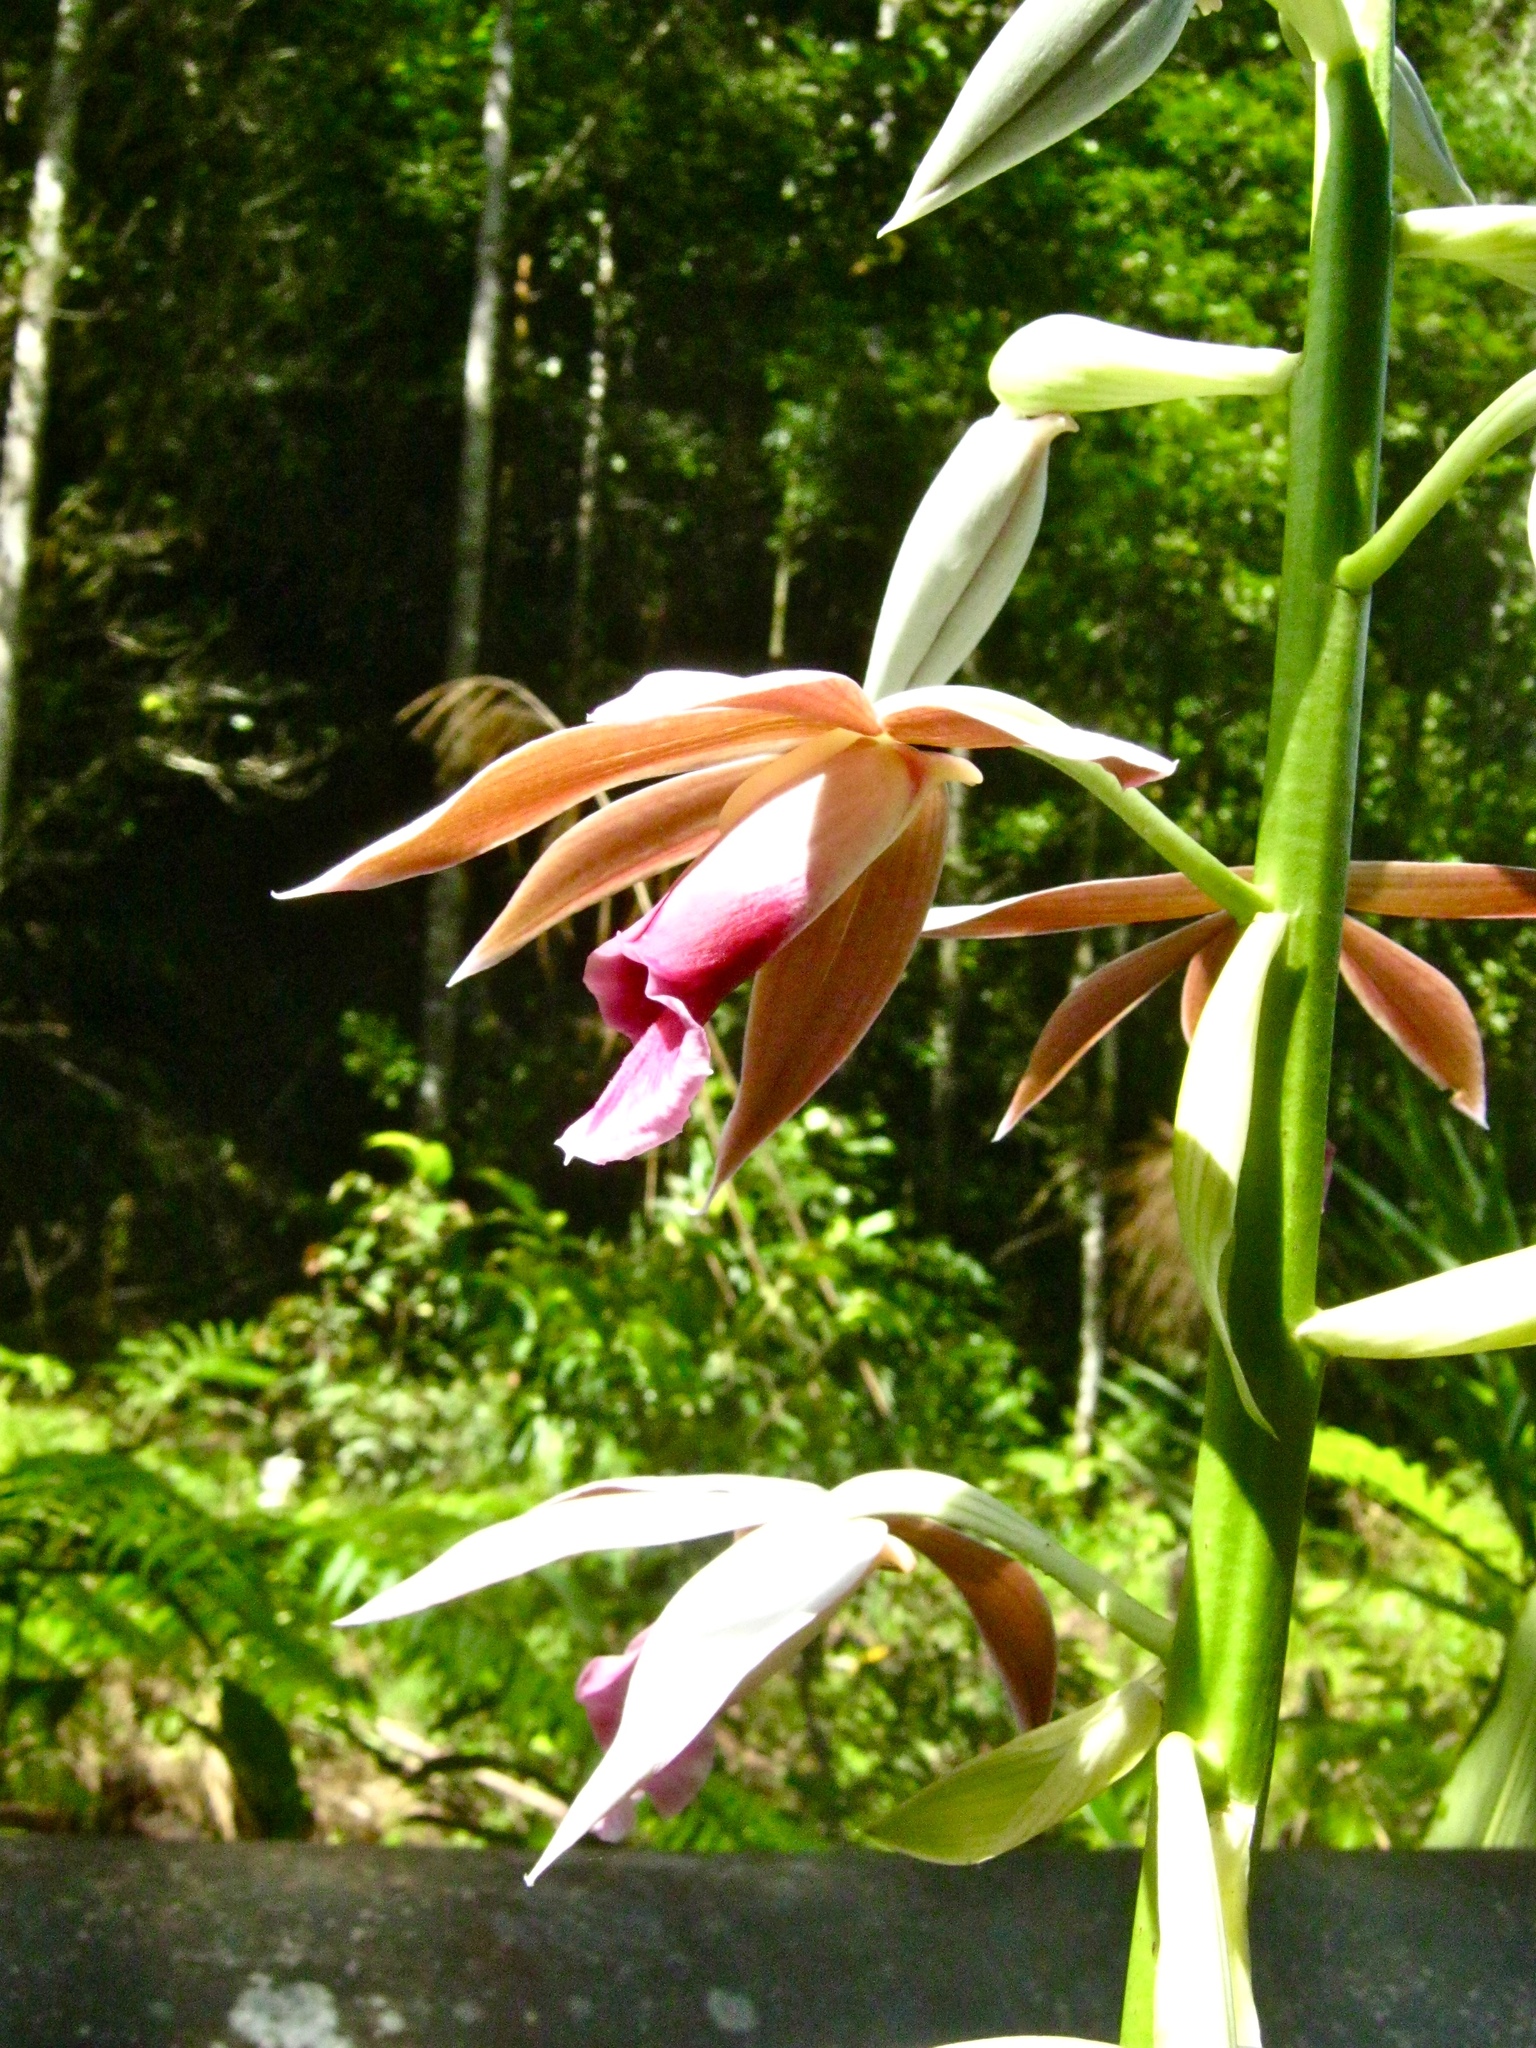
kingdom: Plantae
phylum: Tracheophyta
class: Liliopsida
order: Asparagales
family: Orchidaceae
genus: Calanthe
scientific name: Calanthe tankervilleae
